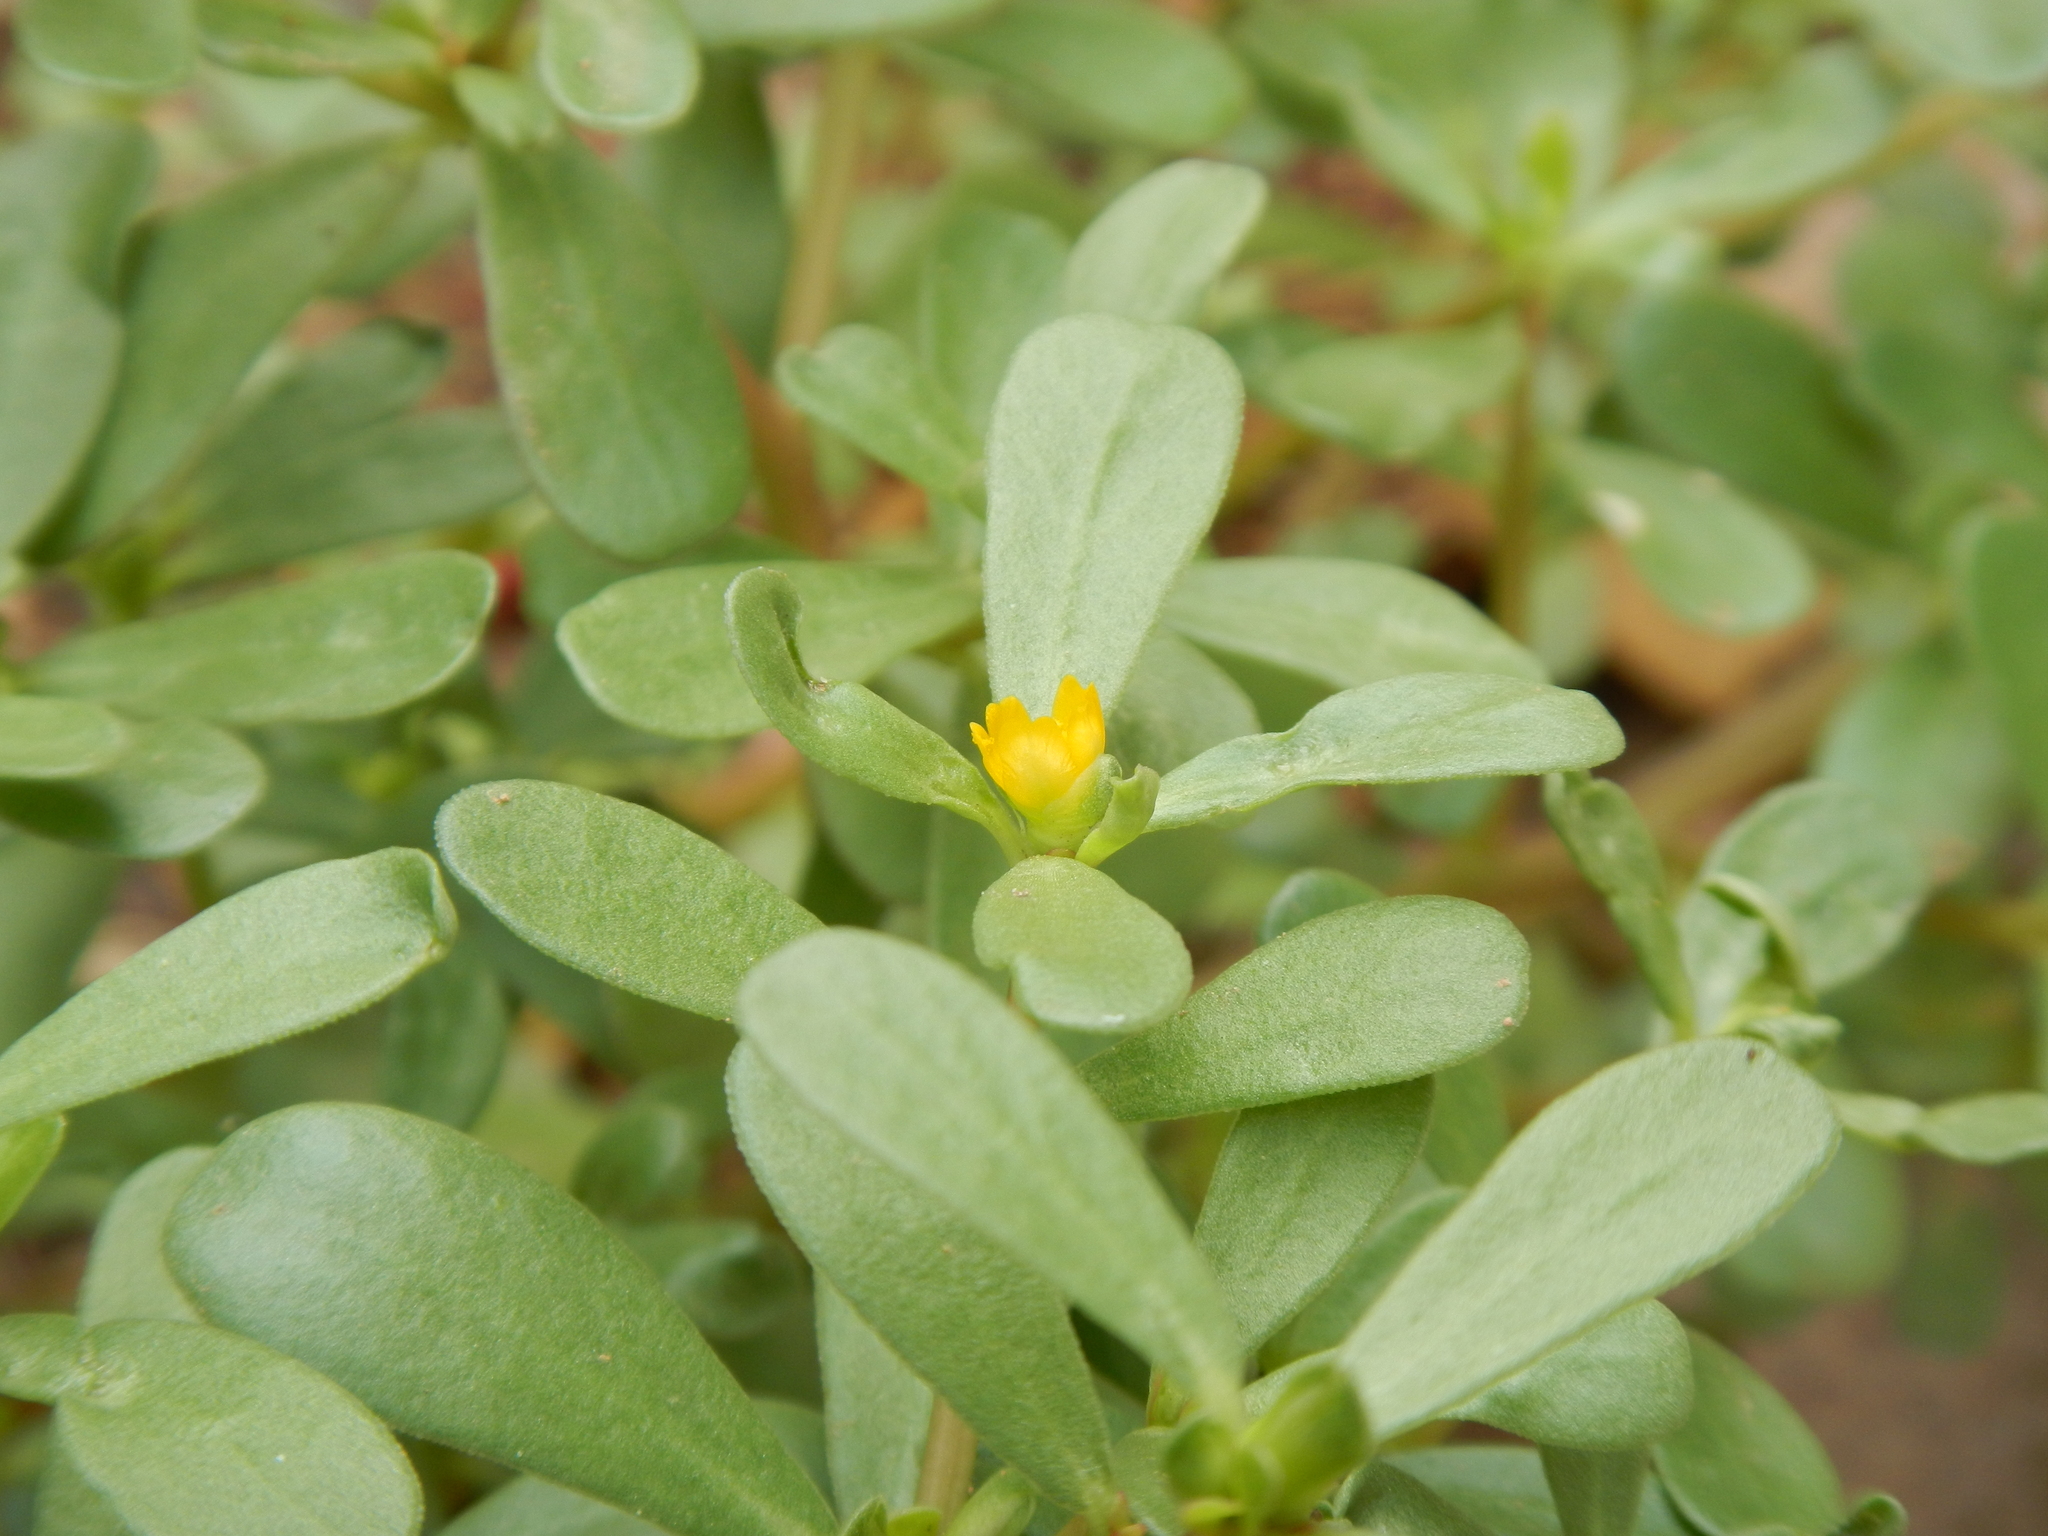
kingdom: Plantae
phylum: Tracheophyta
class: Magnoliopsida
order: Caryophyllales
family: Portulacaceae
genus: Portulaca
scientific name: Portulaca oleracea
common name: Common purslane
